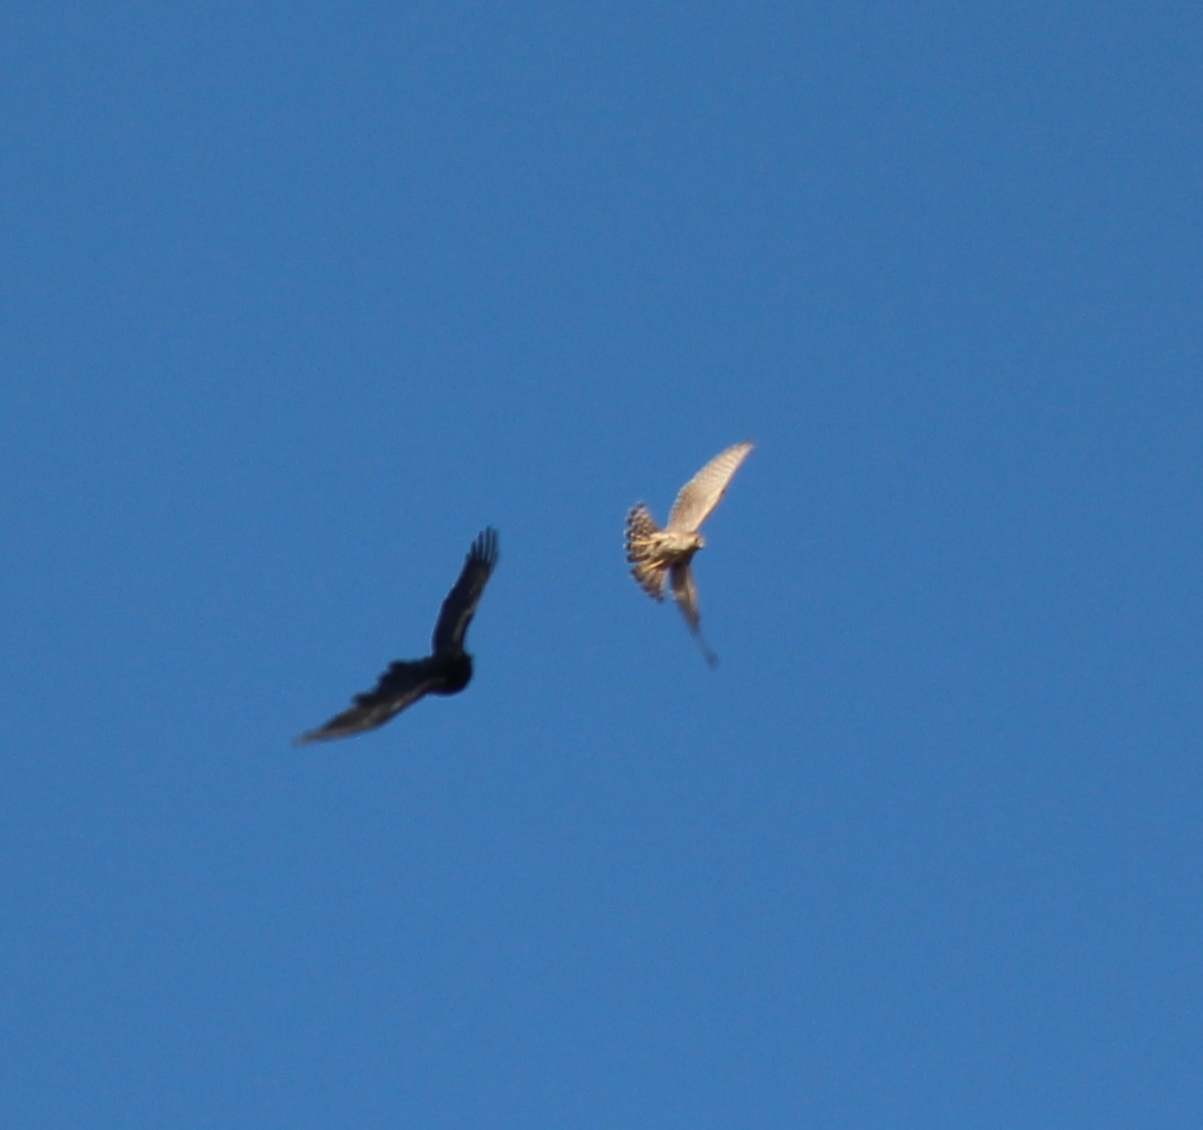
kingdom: Animalia
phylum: Chordata
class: Aves
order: Falconiformes
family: Falconidae
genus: Falco
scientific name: Falco columbarius
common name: Merlin
